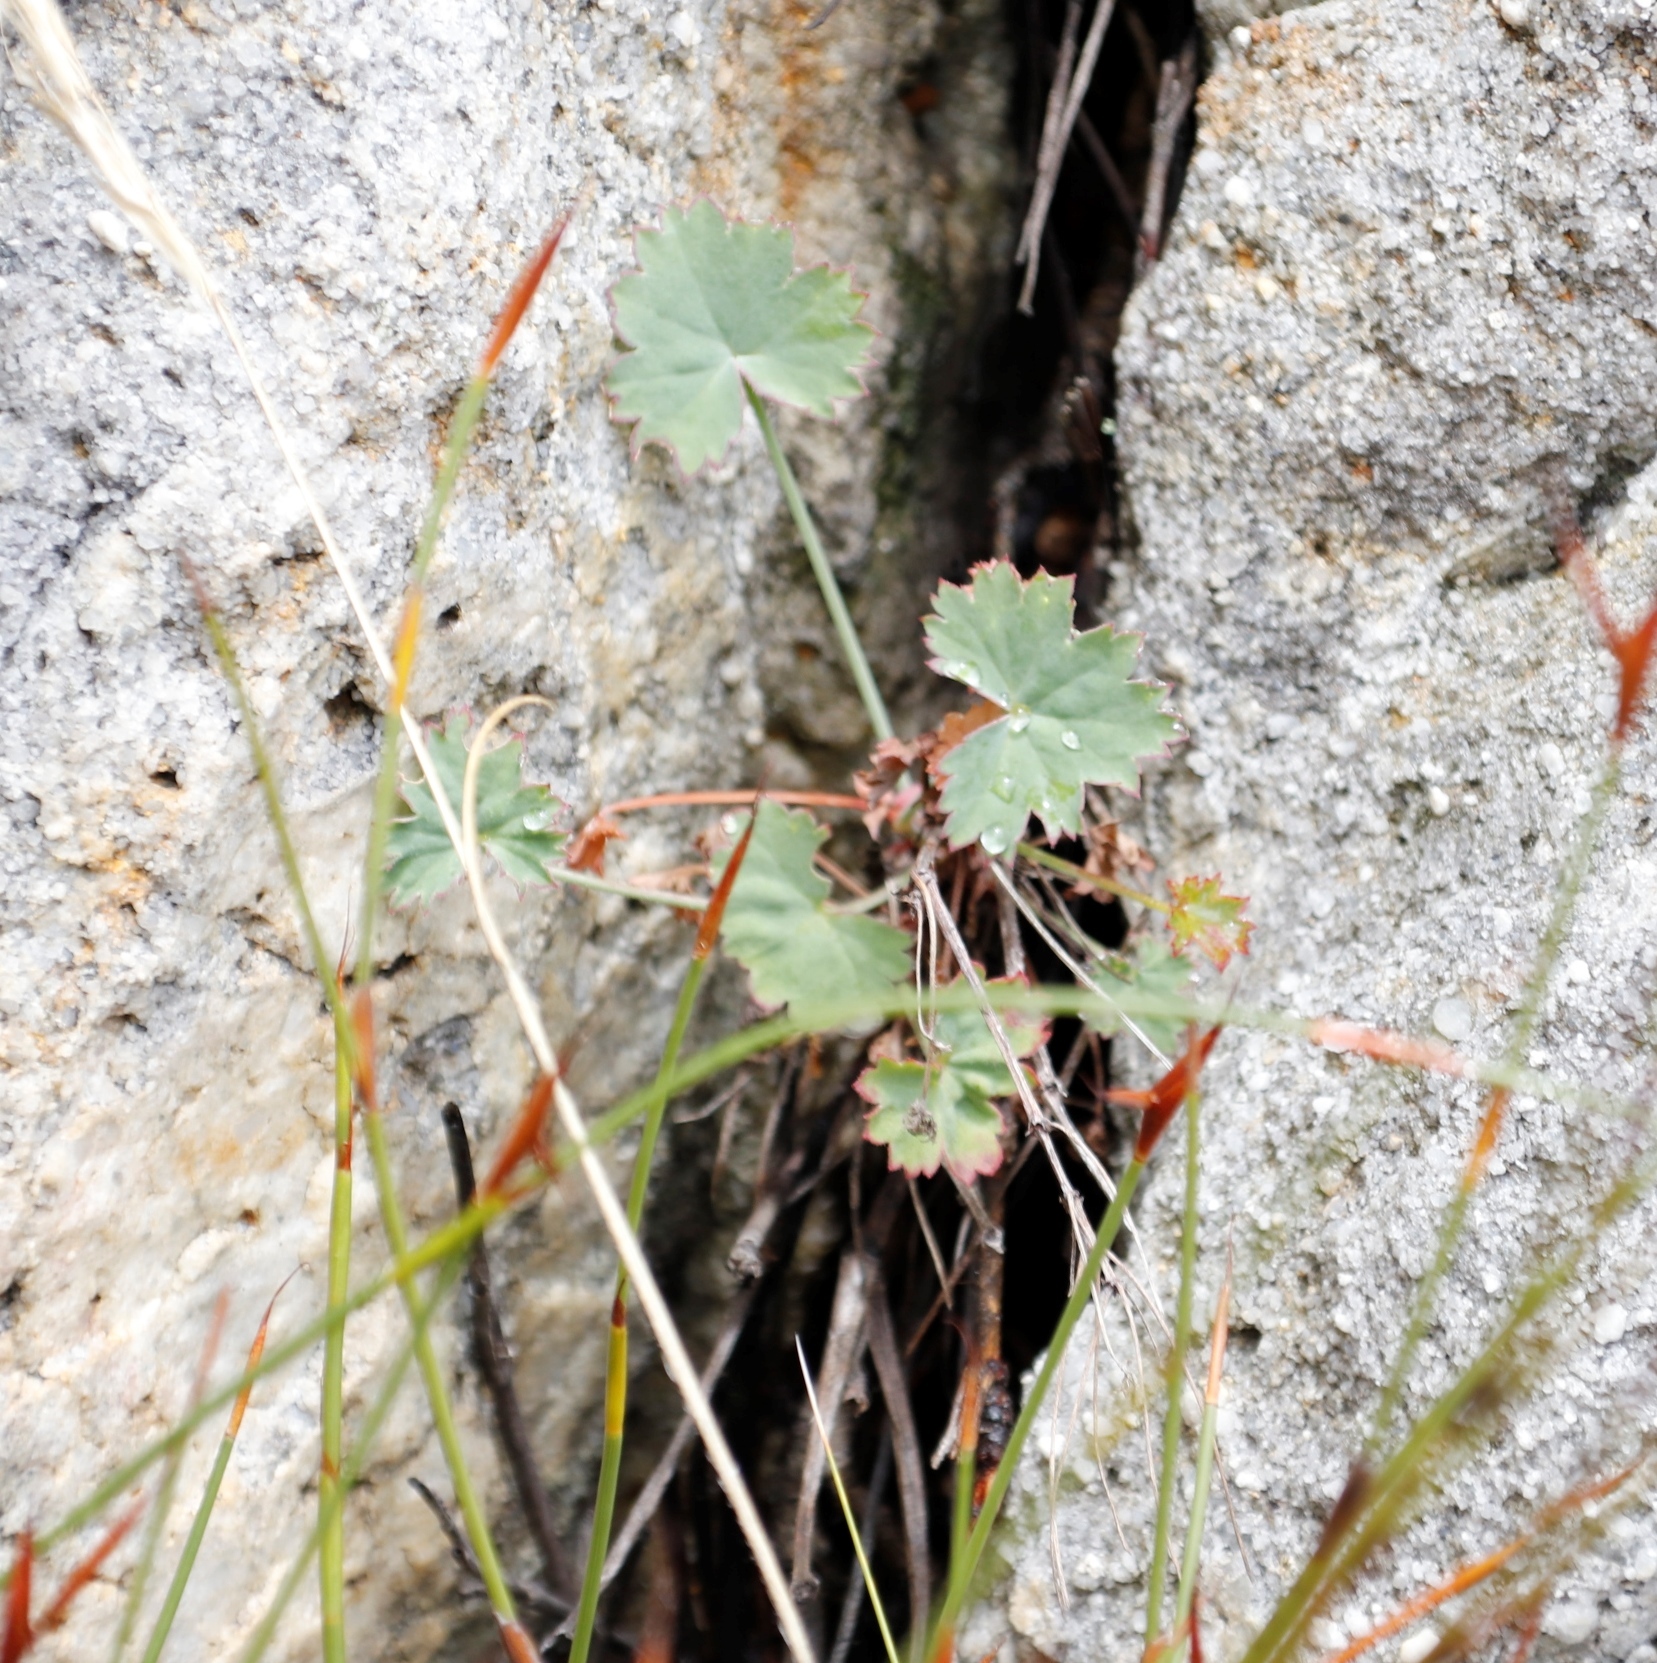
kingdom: Plantae
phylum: Tracheophyta
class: Magnoliopsida
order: Geraniales
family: Geraniaceae
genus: Pelargonium
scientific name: Pelargonium patulum
